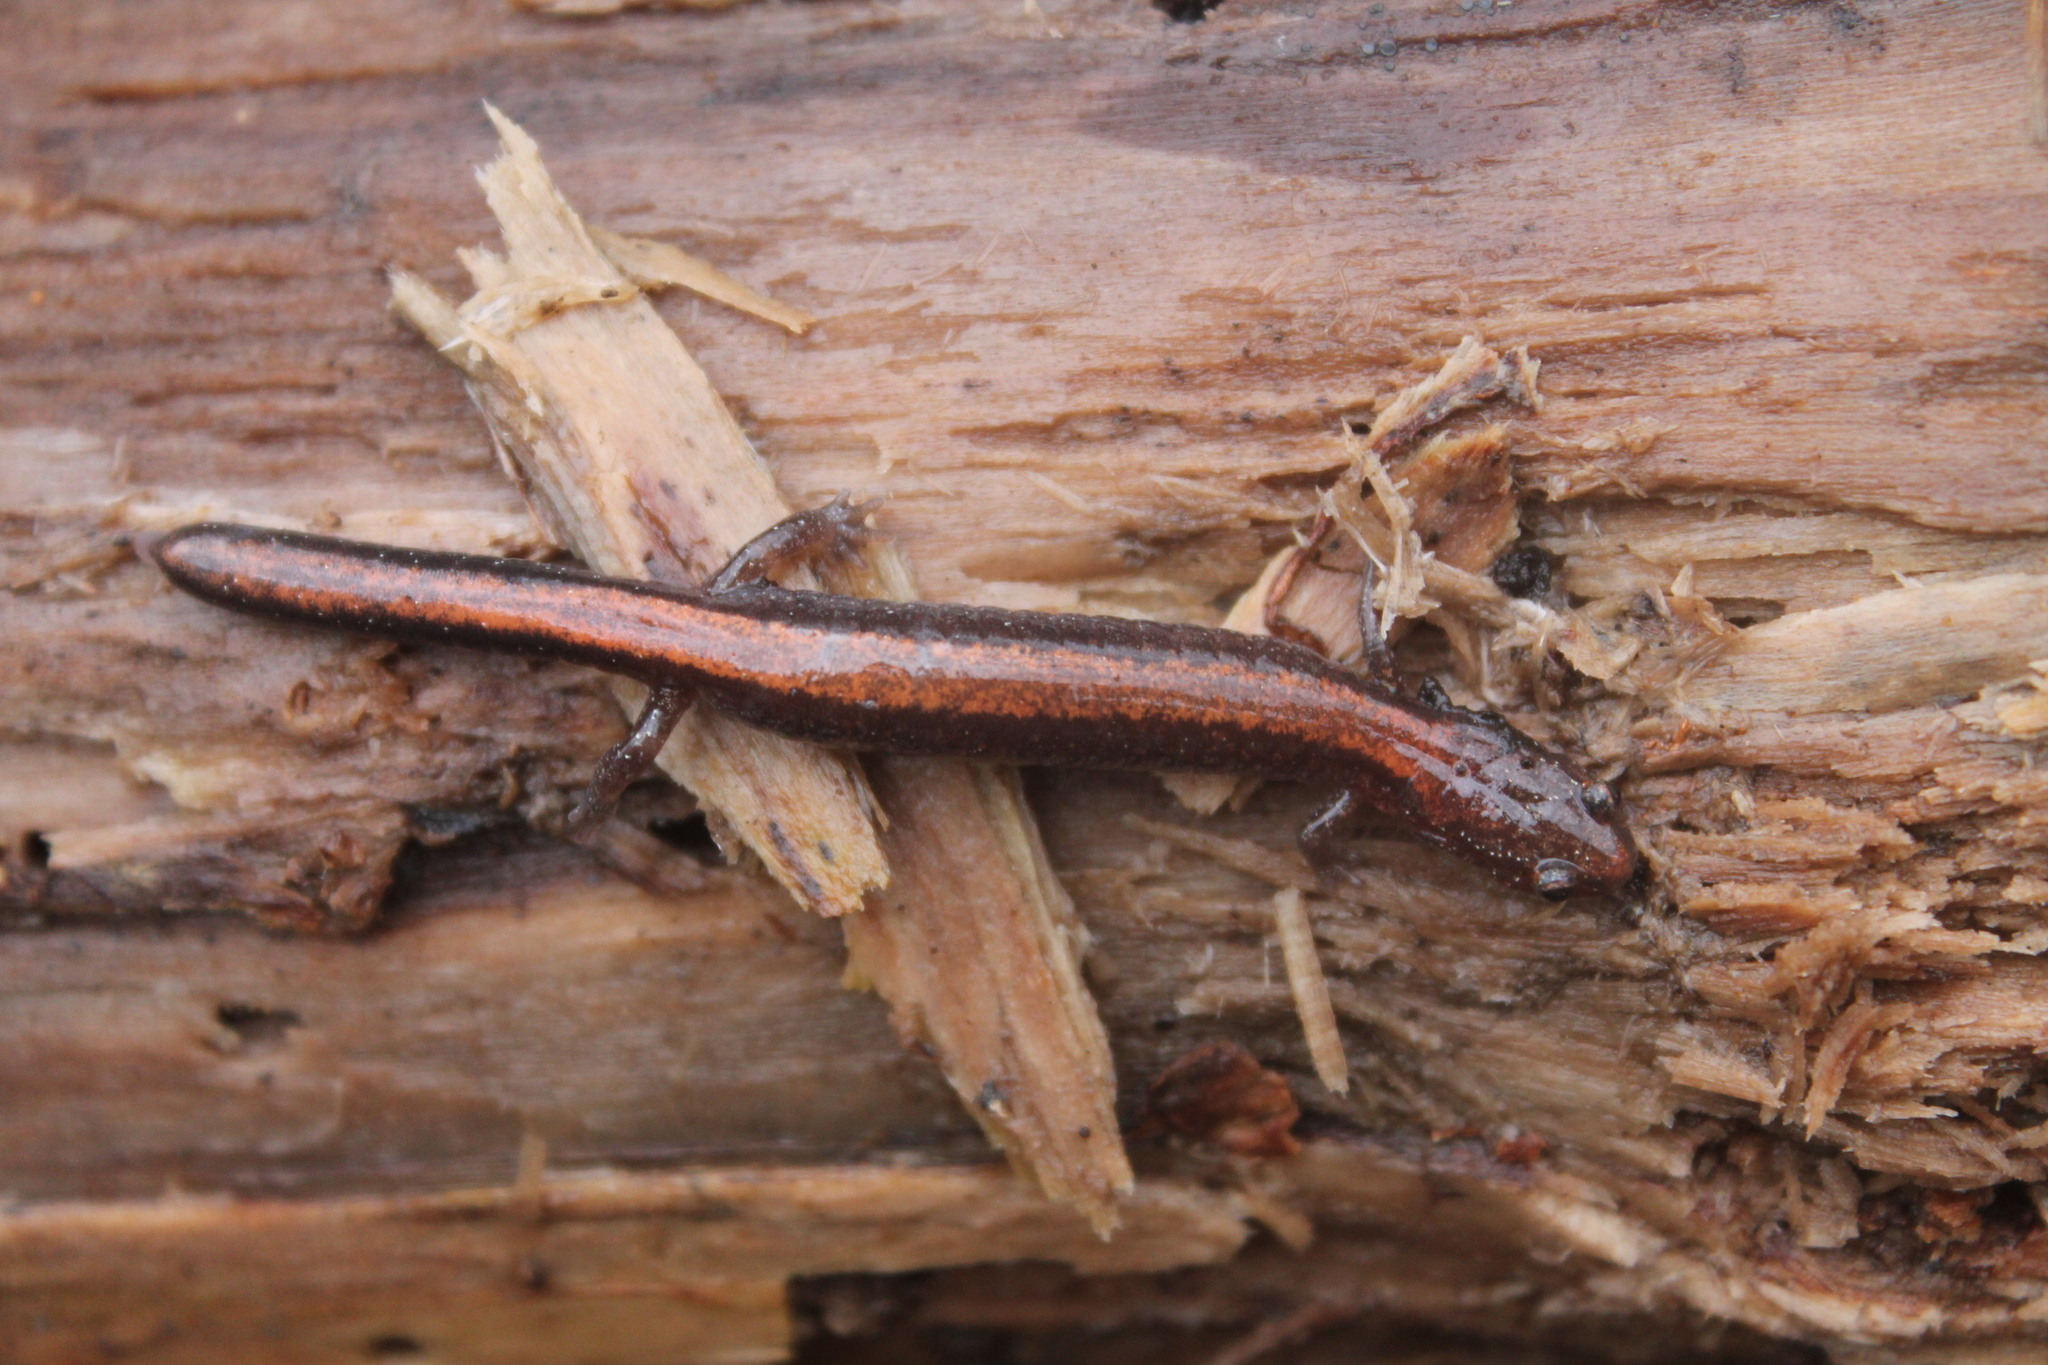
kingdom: Animalia
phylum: Chordata
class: Amphibia
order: Caudata
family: Plethodontidae
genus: Plethodon
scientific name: Plethodon cinereus
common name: Redback salamander
